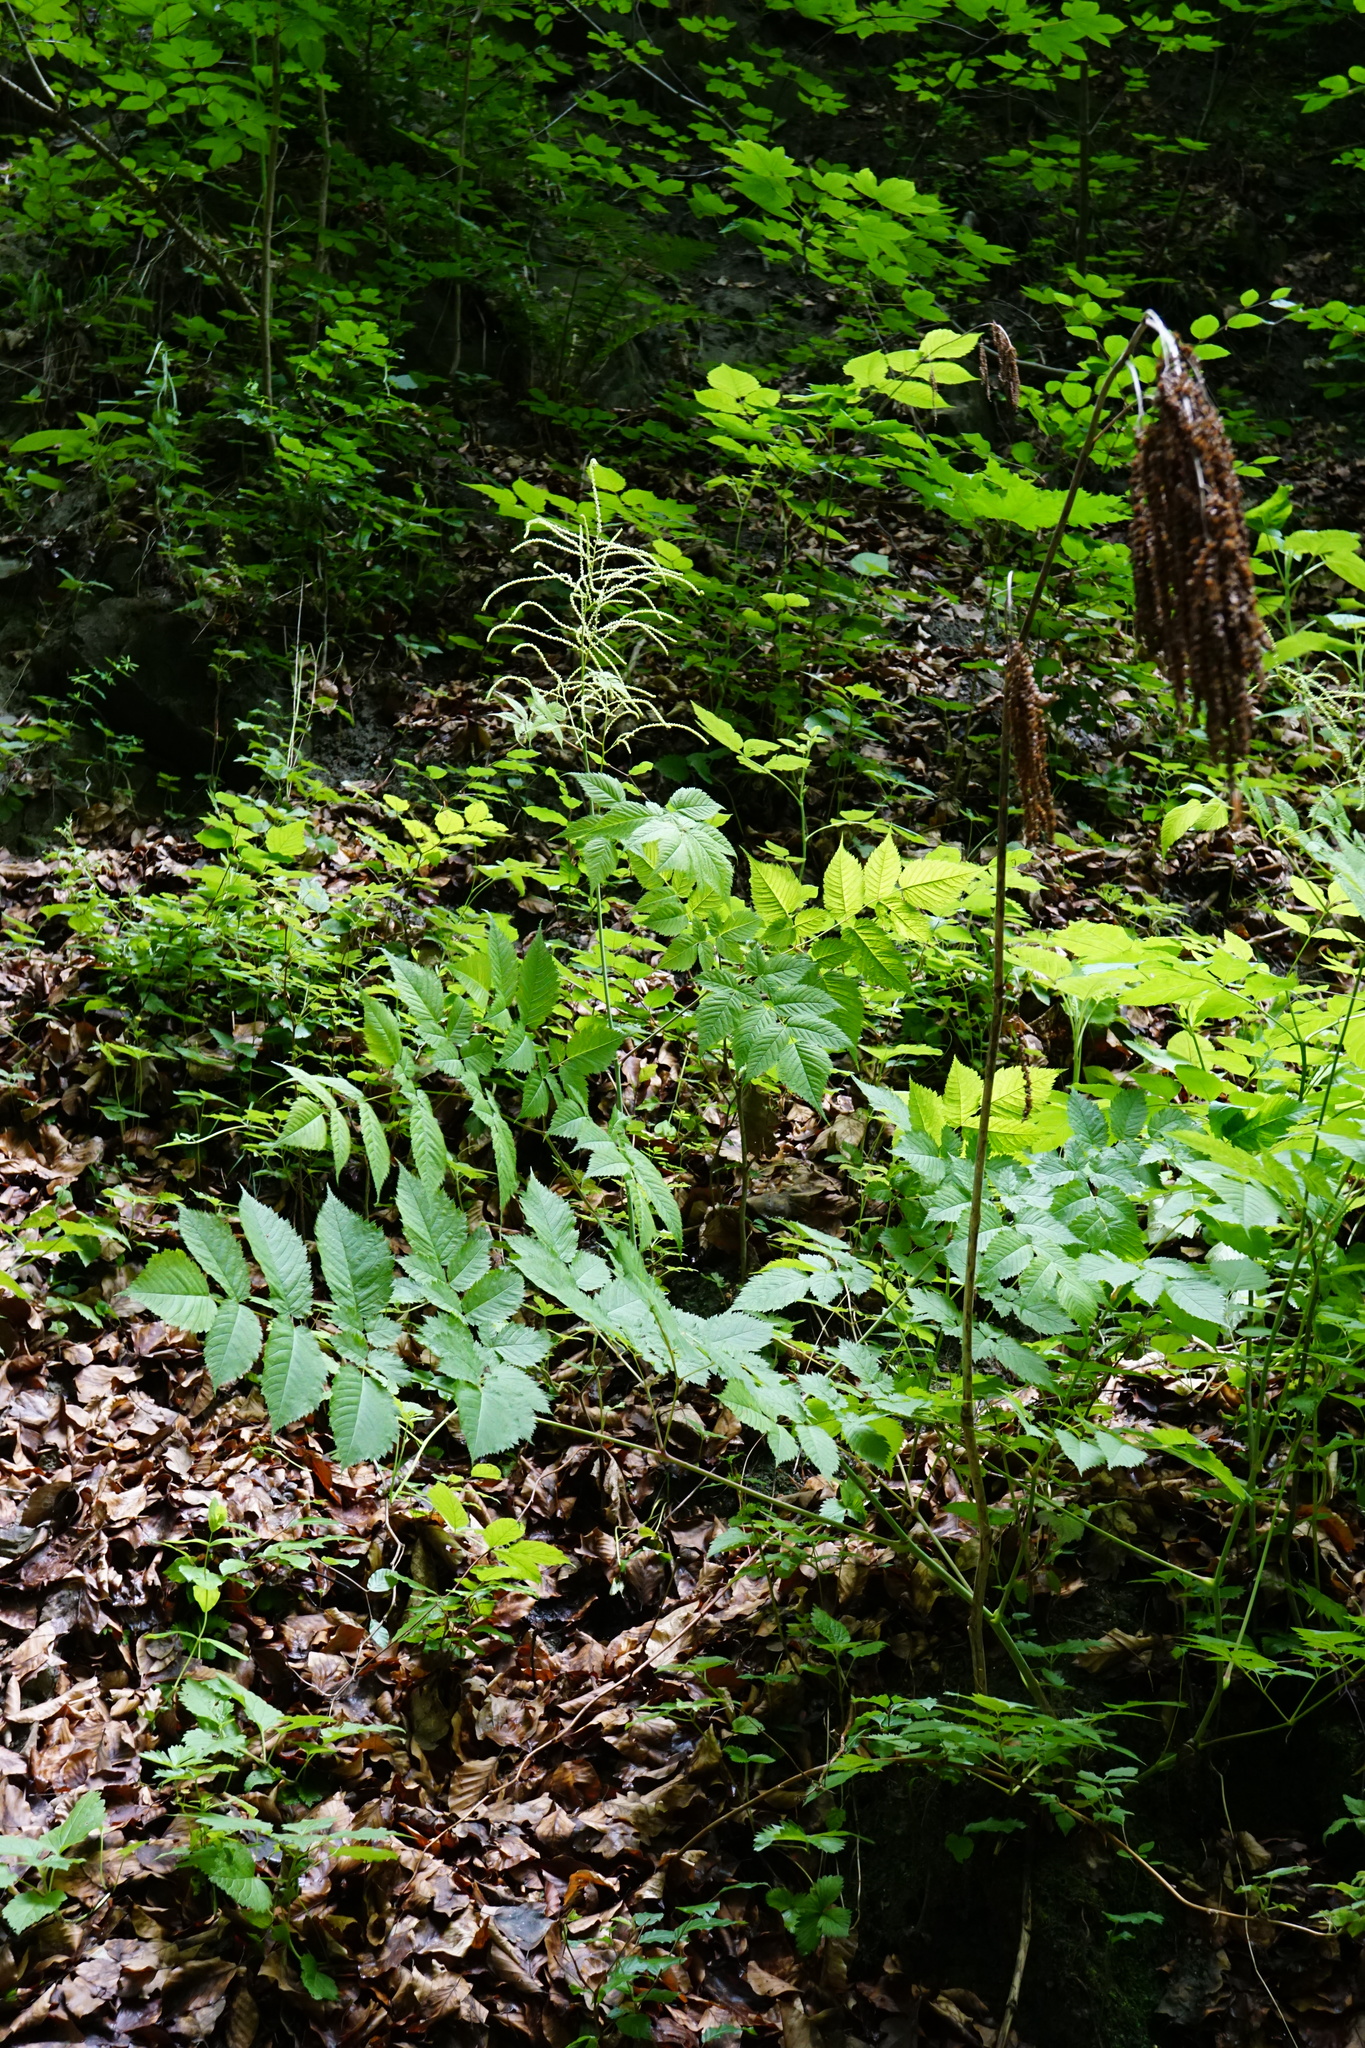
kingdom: Plantae
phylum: Tracheophyta
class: Magnoliopsida
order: Rosales
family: Rosaceae
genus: Aruncus
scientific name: Aruncus dioicus
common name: Buck's-beard
